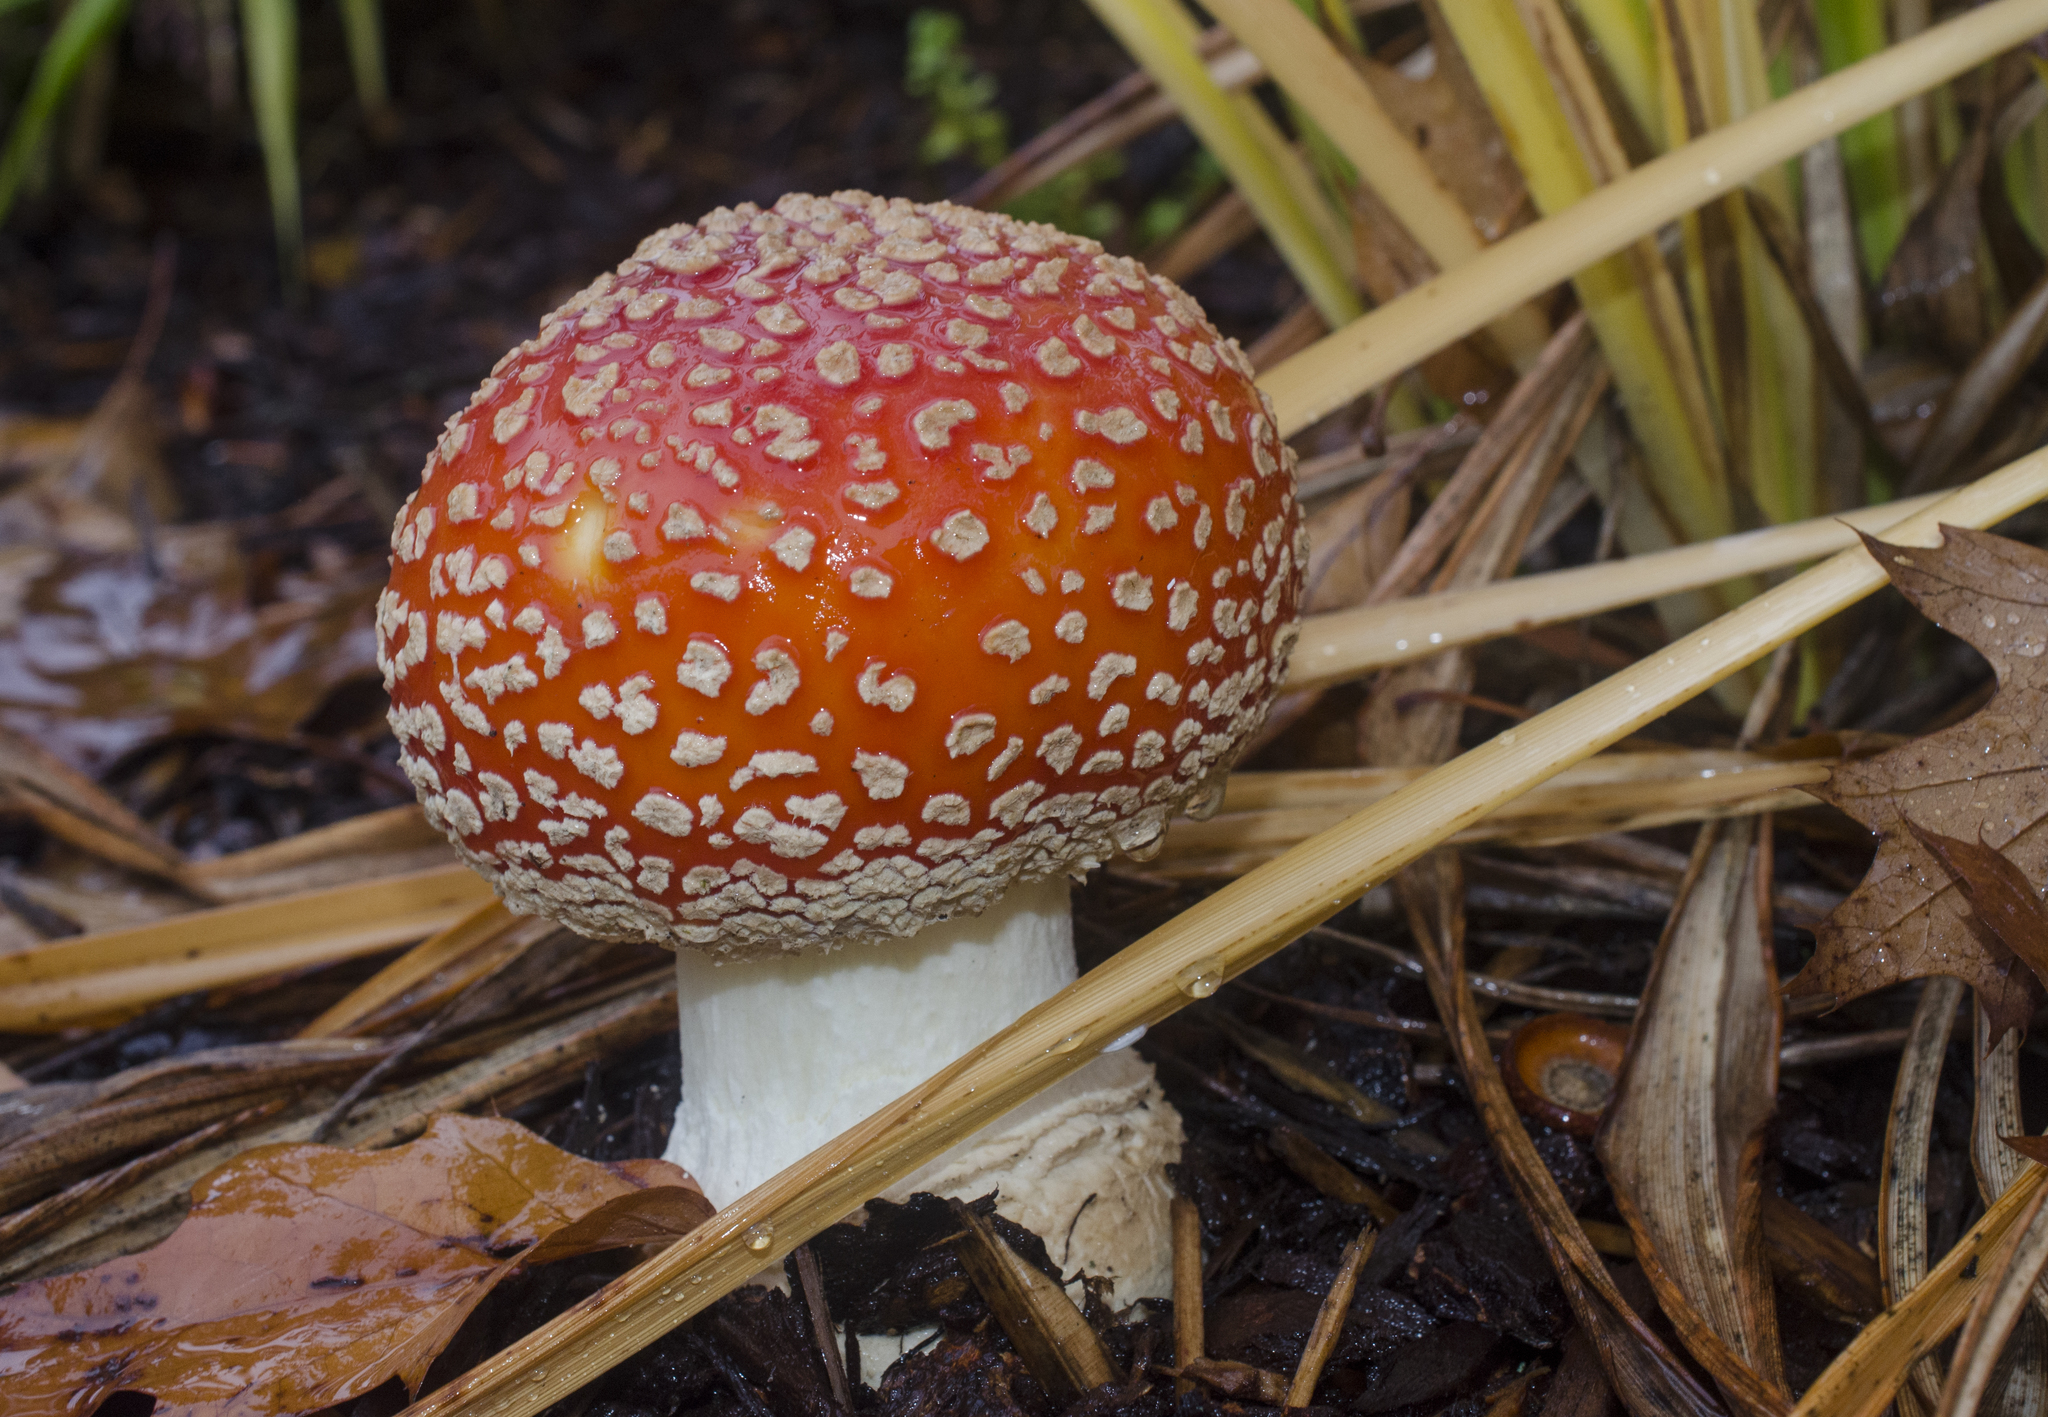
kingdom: Fungi
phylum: Basidiomycota
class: Agaricomycetes
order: Agaricales
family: Amanitaceae
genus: Amanita
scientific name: Amanita muscaria
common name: Fly agaric
